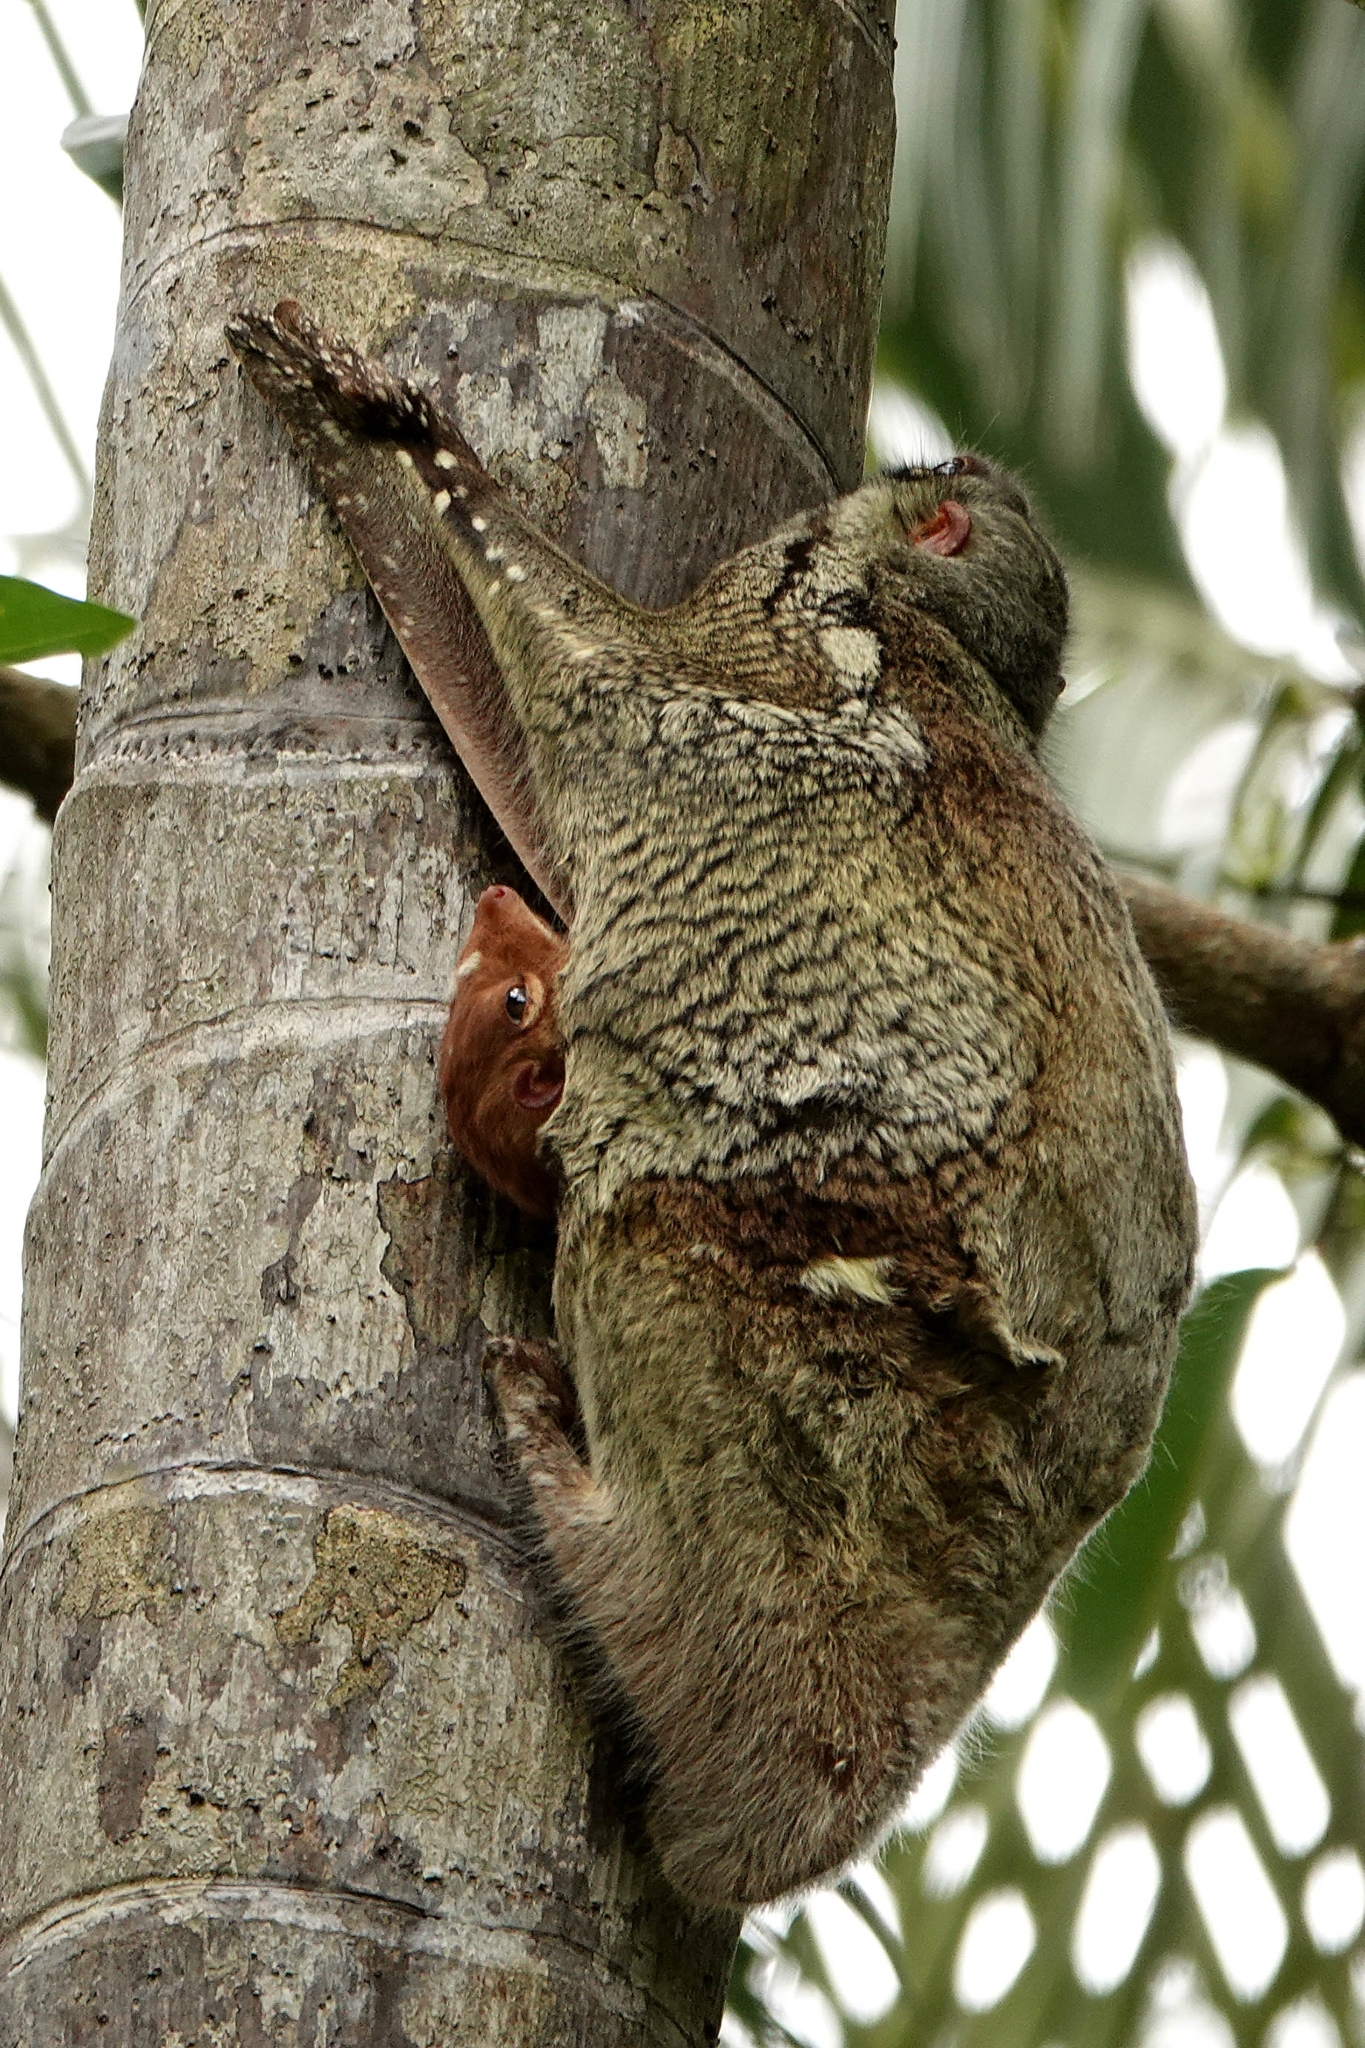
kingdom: Animalia
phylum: Chordata
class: Mammalia
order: Dermoptera
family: Cynocephalidae
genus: Galeopterus
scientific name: Galeopterus variegatus
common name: Sunda flying lemur
